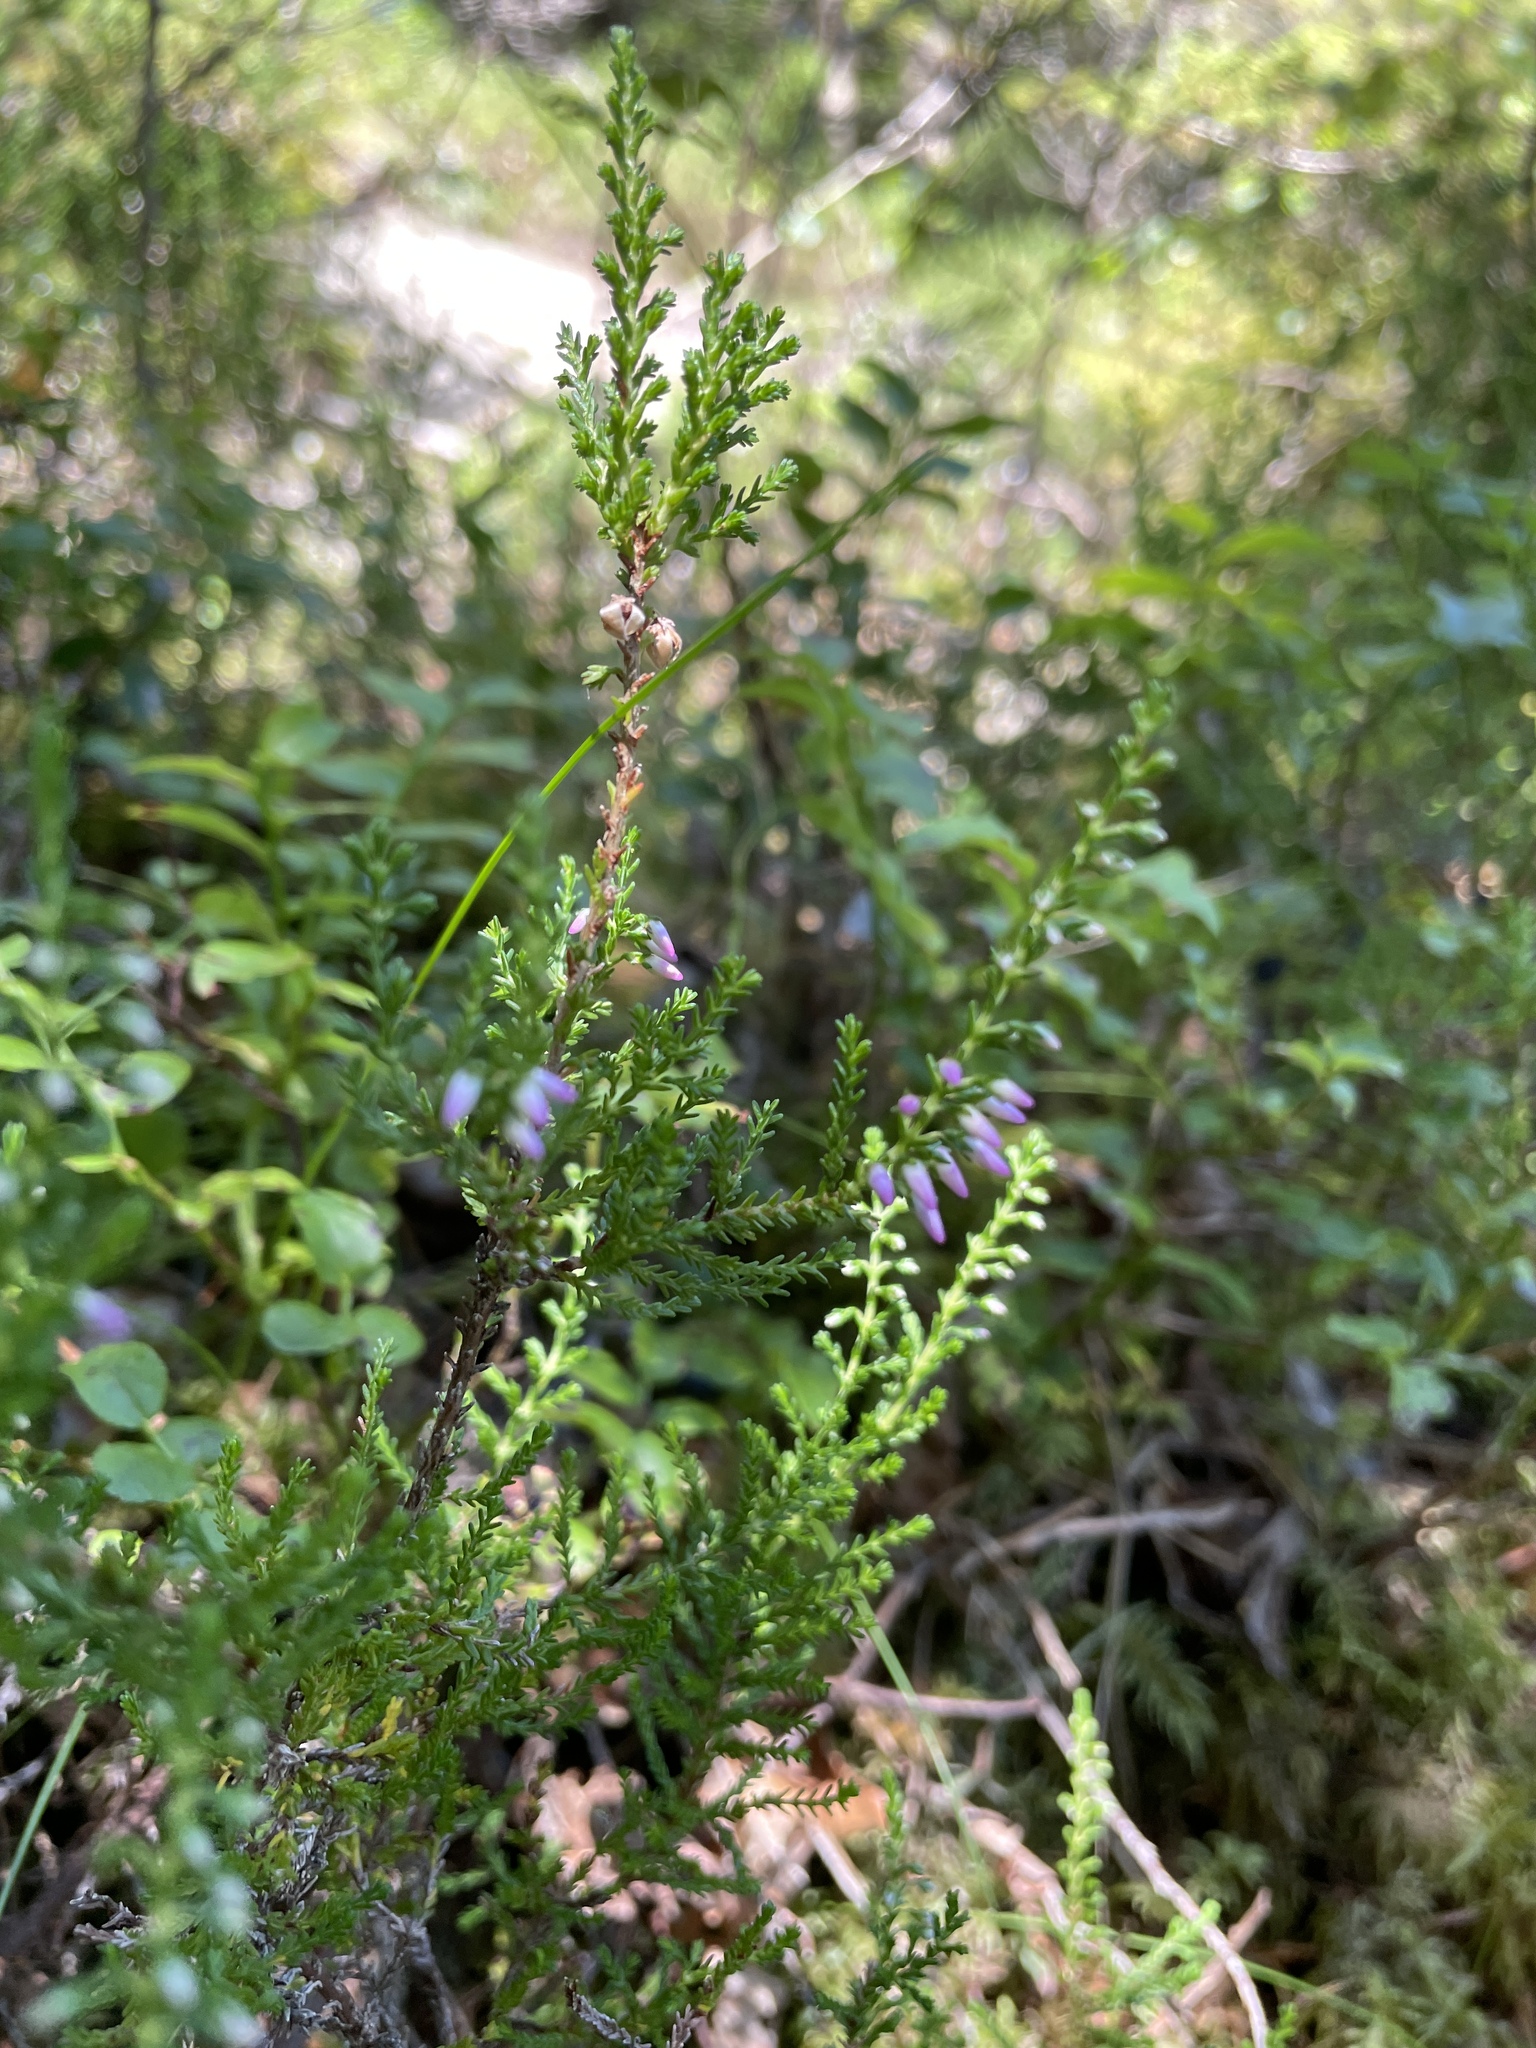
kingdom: Plantae
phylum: Tracheophyta
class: Magnoliopsida
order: Ericales
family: Ericaceae
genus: Calluna
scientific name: Calluna vulgaris
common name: Heather
